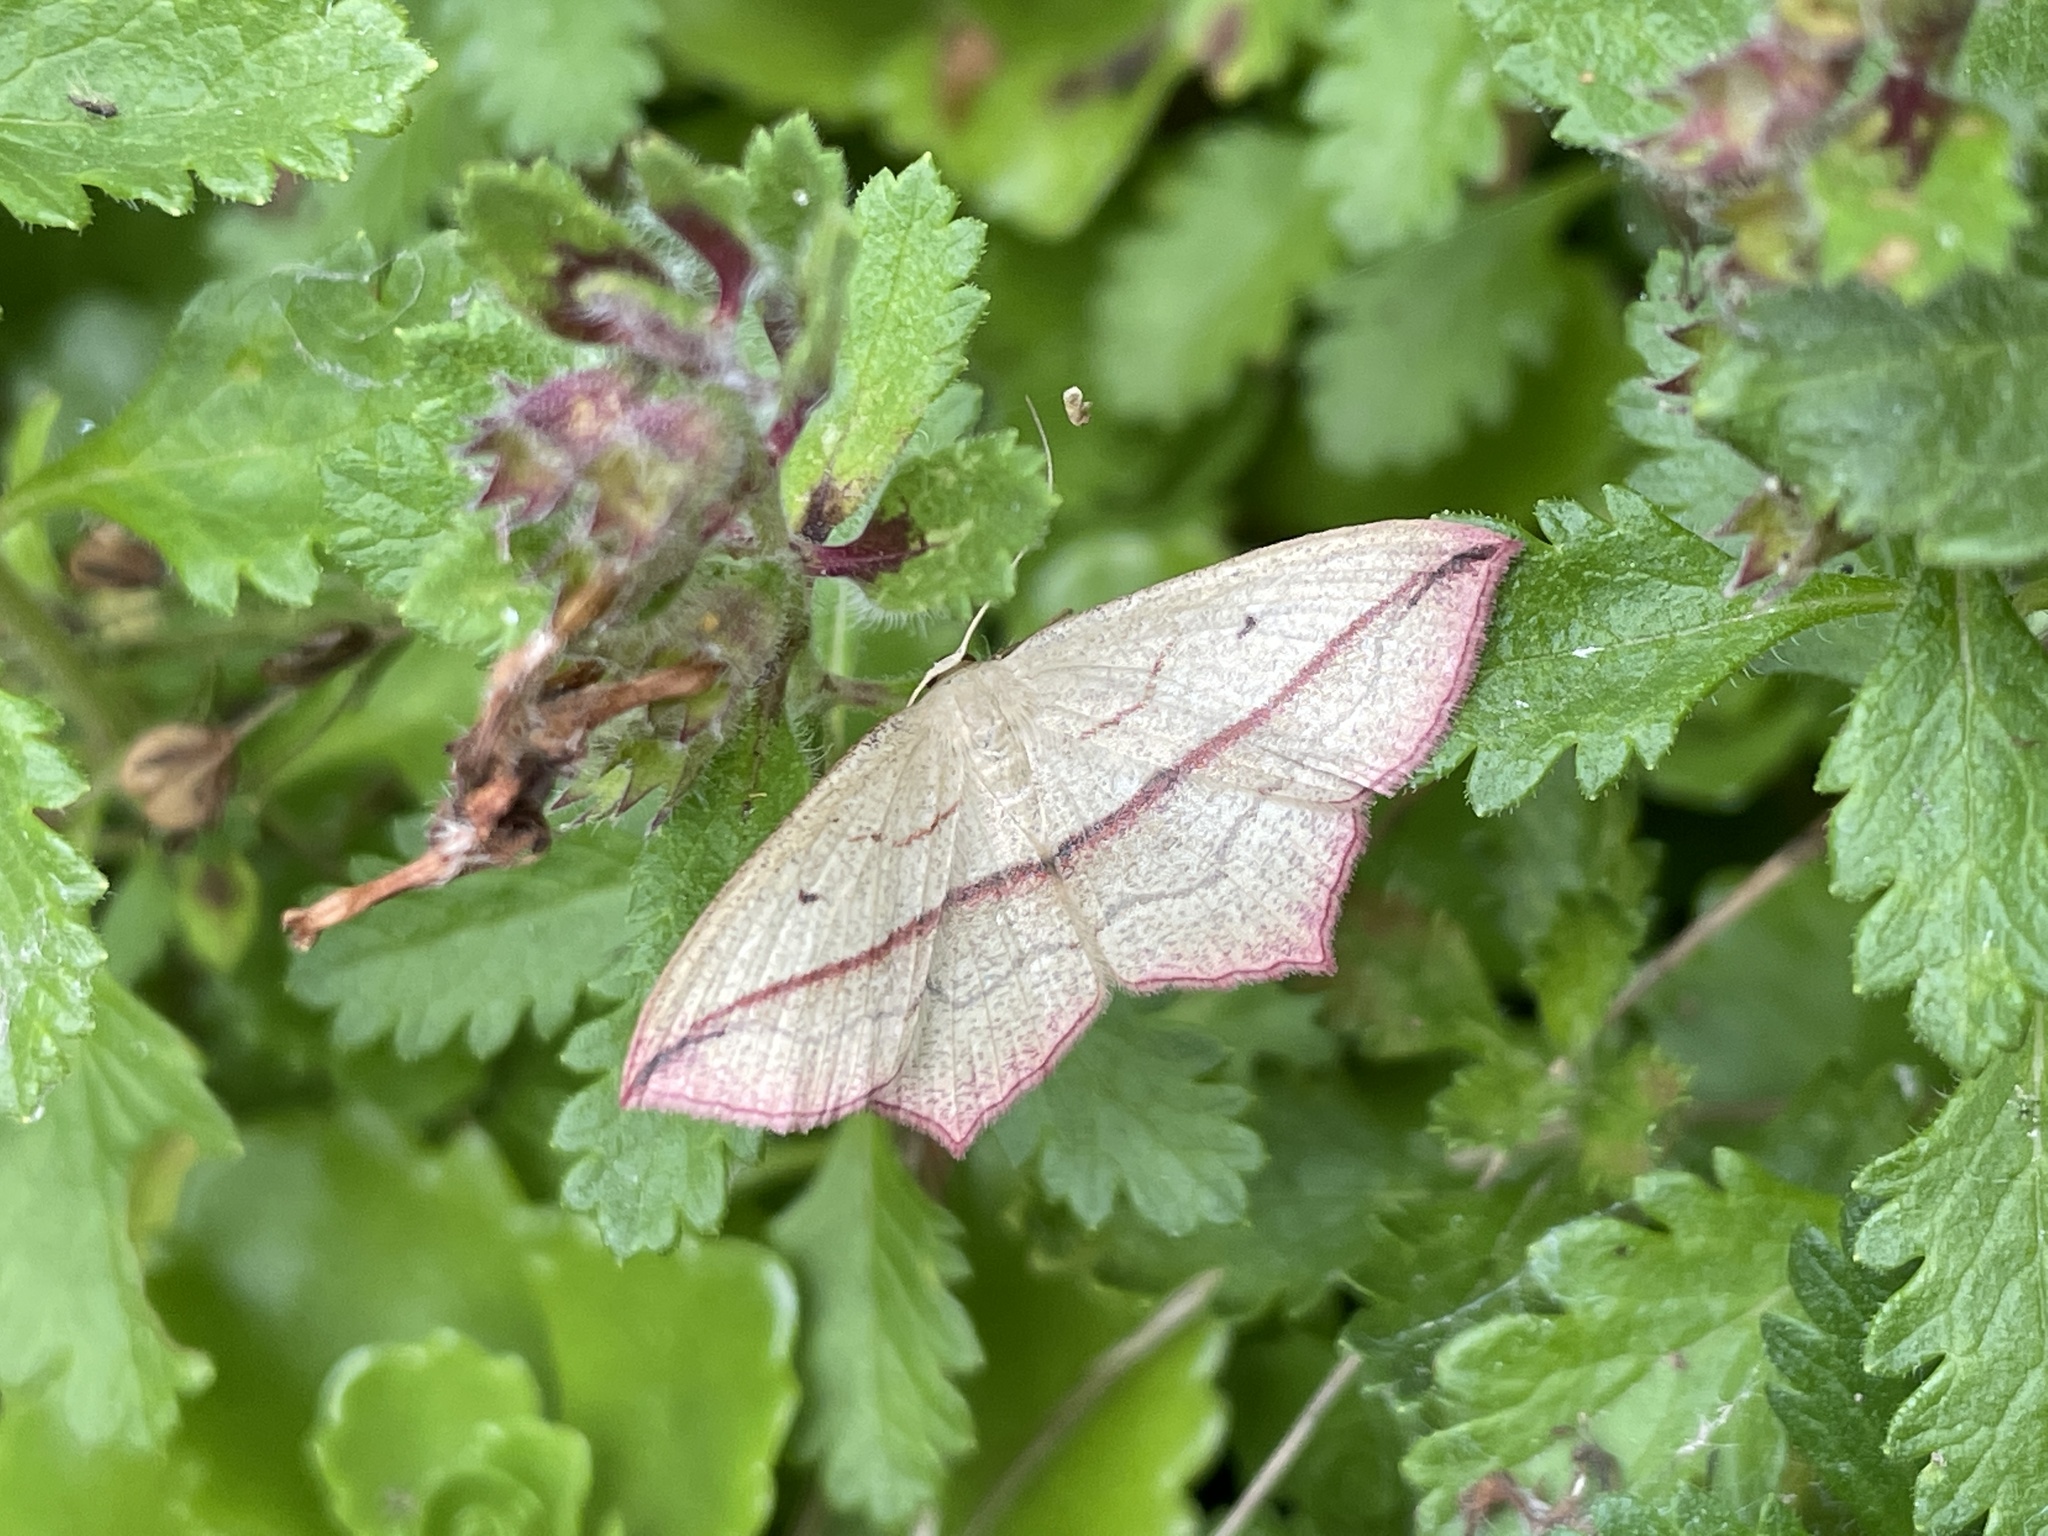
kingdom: Animalia
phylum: Arthropoda
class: Insecta
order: Lepidoptera
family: Geometridae
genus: Timandra
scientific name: Timandra comae
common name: Blood-vein
